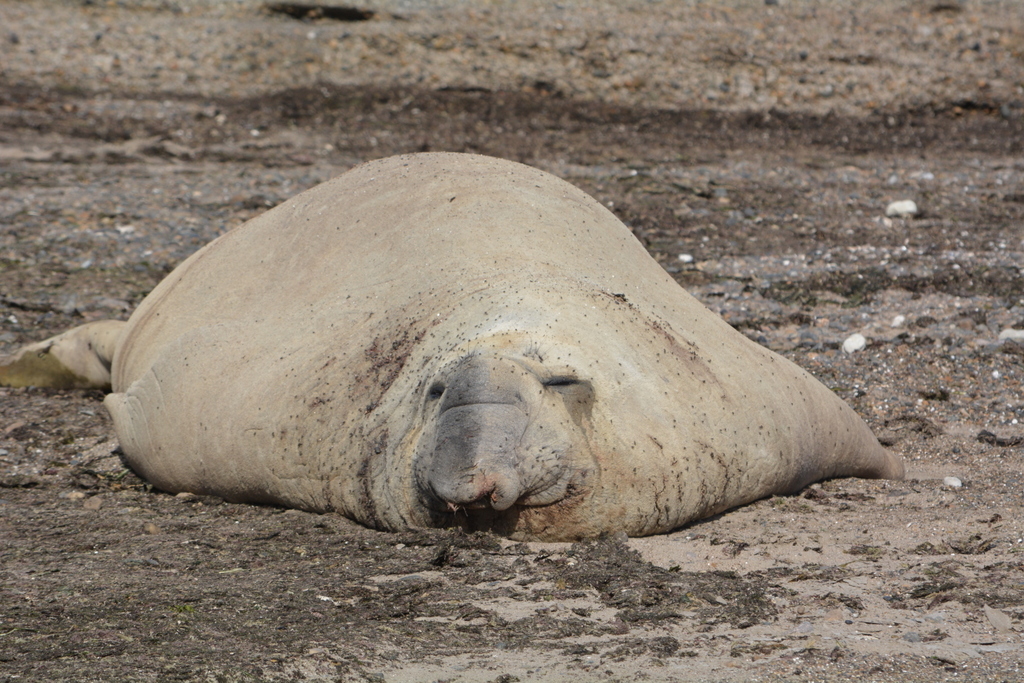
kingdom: Animalia
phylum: Chordata
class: Mammalia
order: Carnivora
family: Phocidae
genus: Mirounga
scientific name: Mirounga leonina
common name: Southern elephant seal
